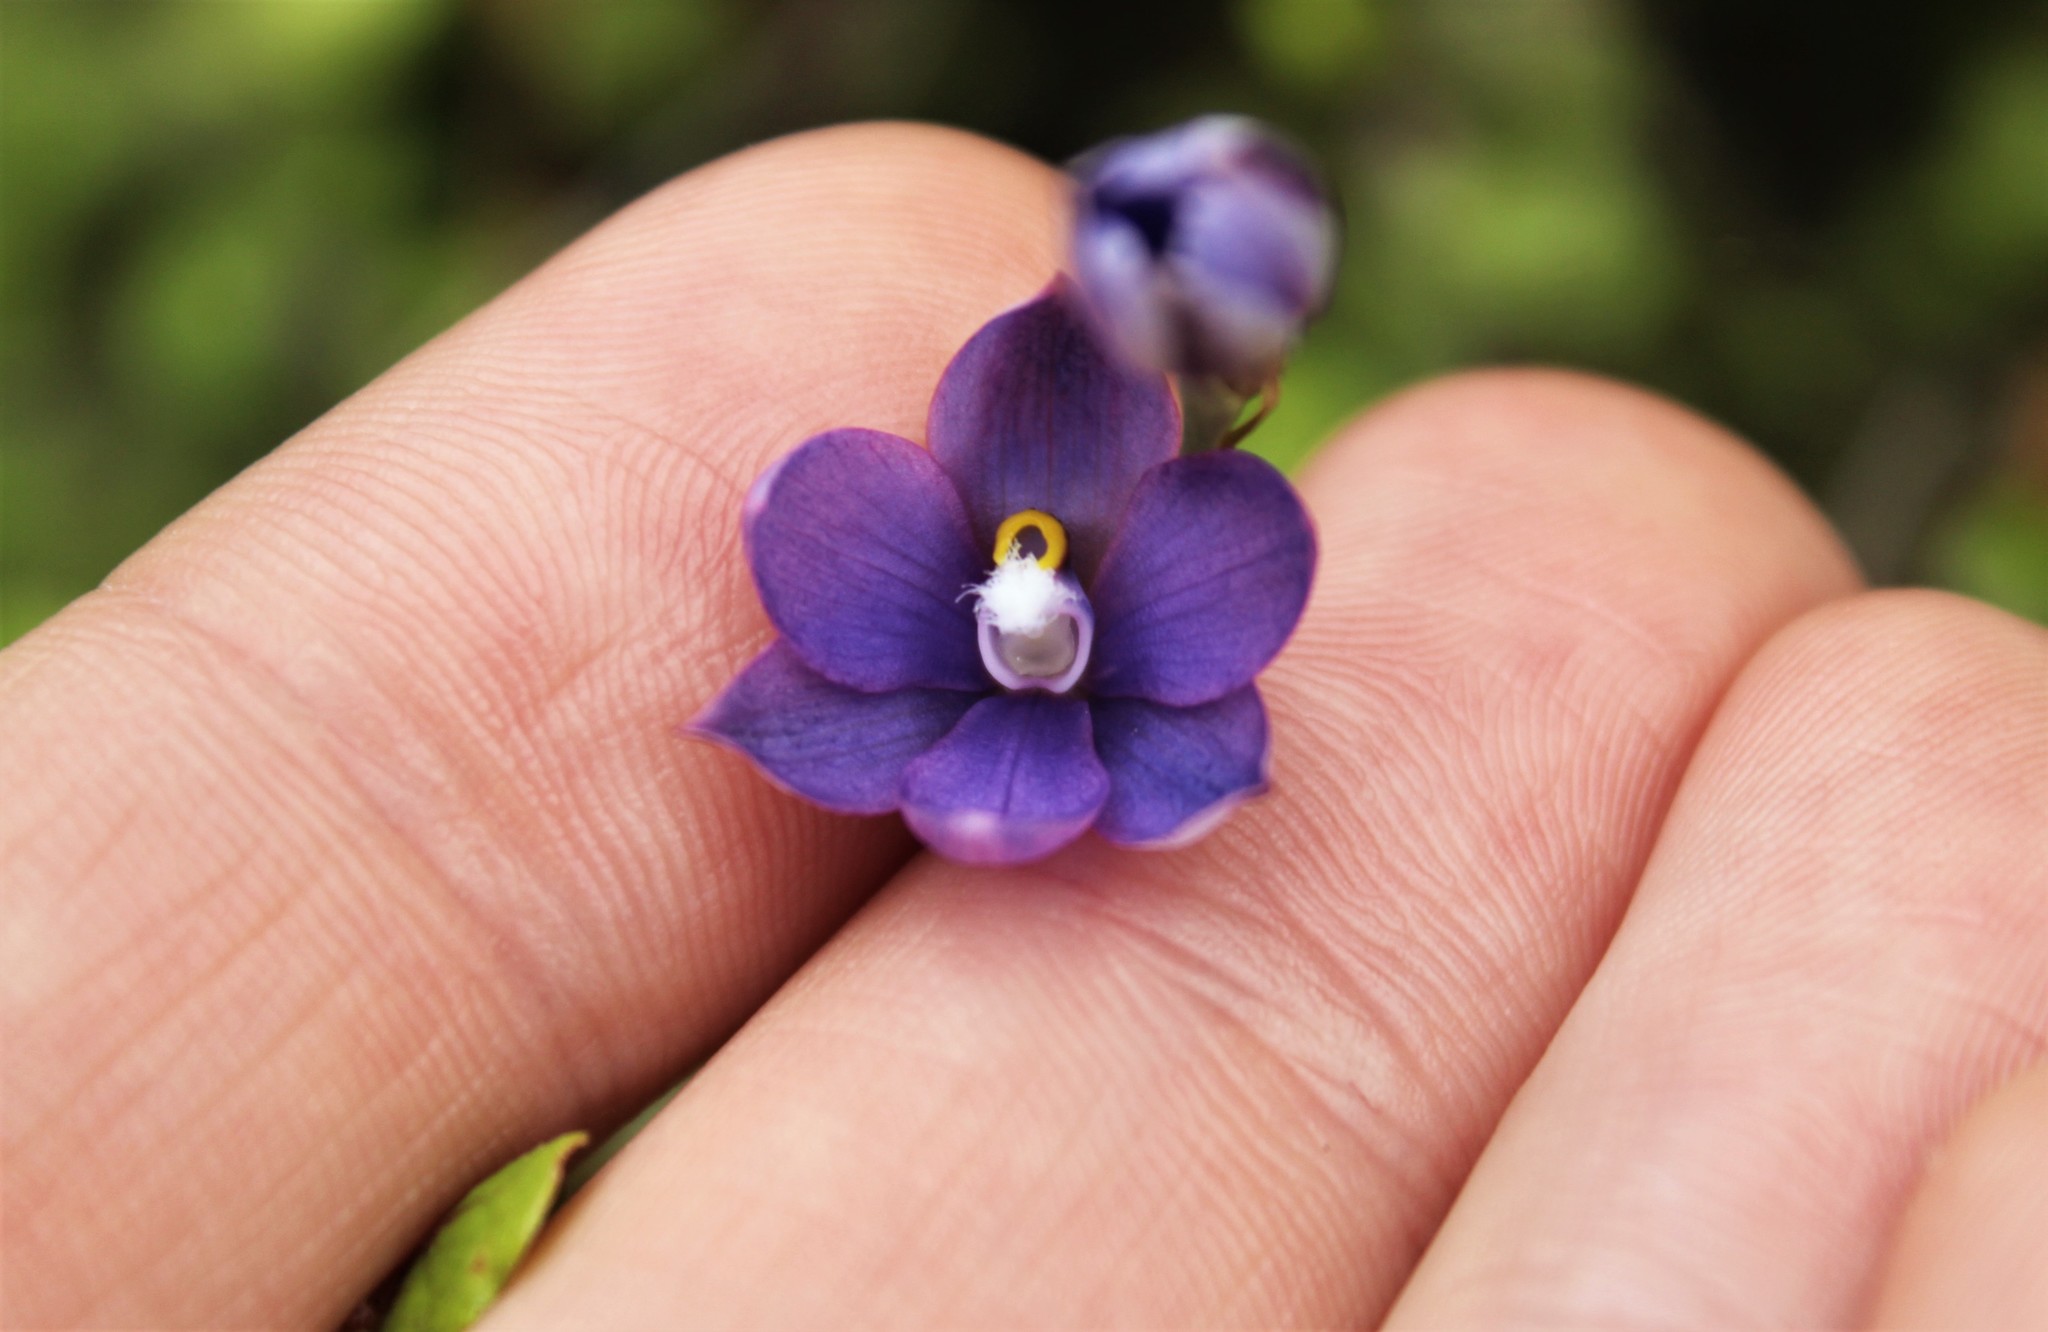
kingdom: Plantae
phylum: Tracheophyta
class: Liliopsida
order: Asparagales
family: Orchidaceae
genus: Thelymitra
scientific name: Thelymitra nervosa
